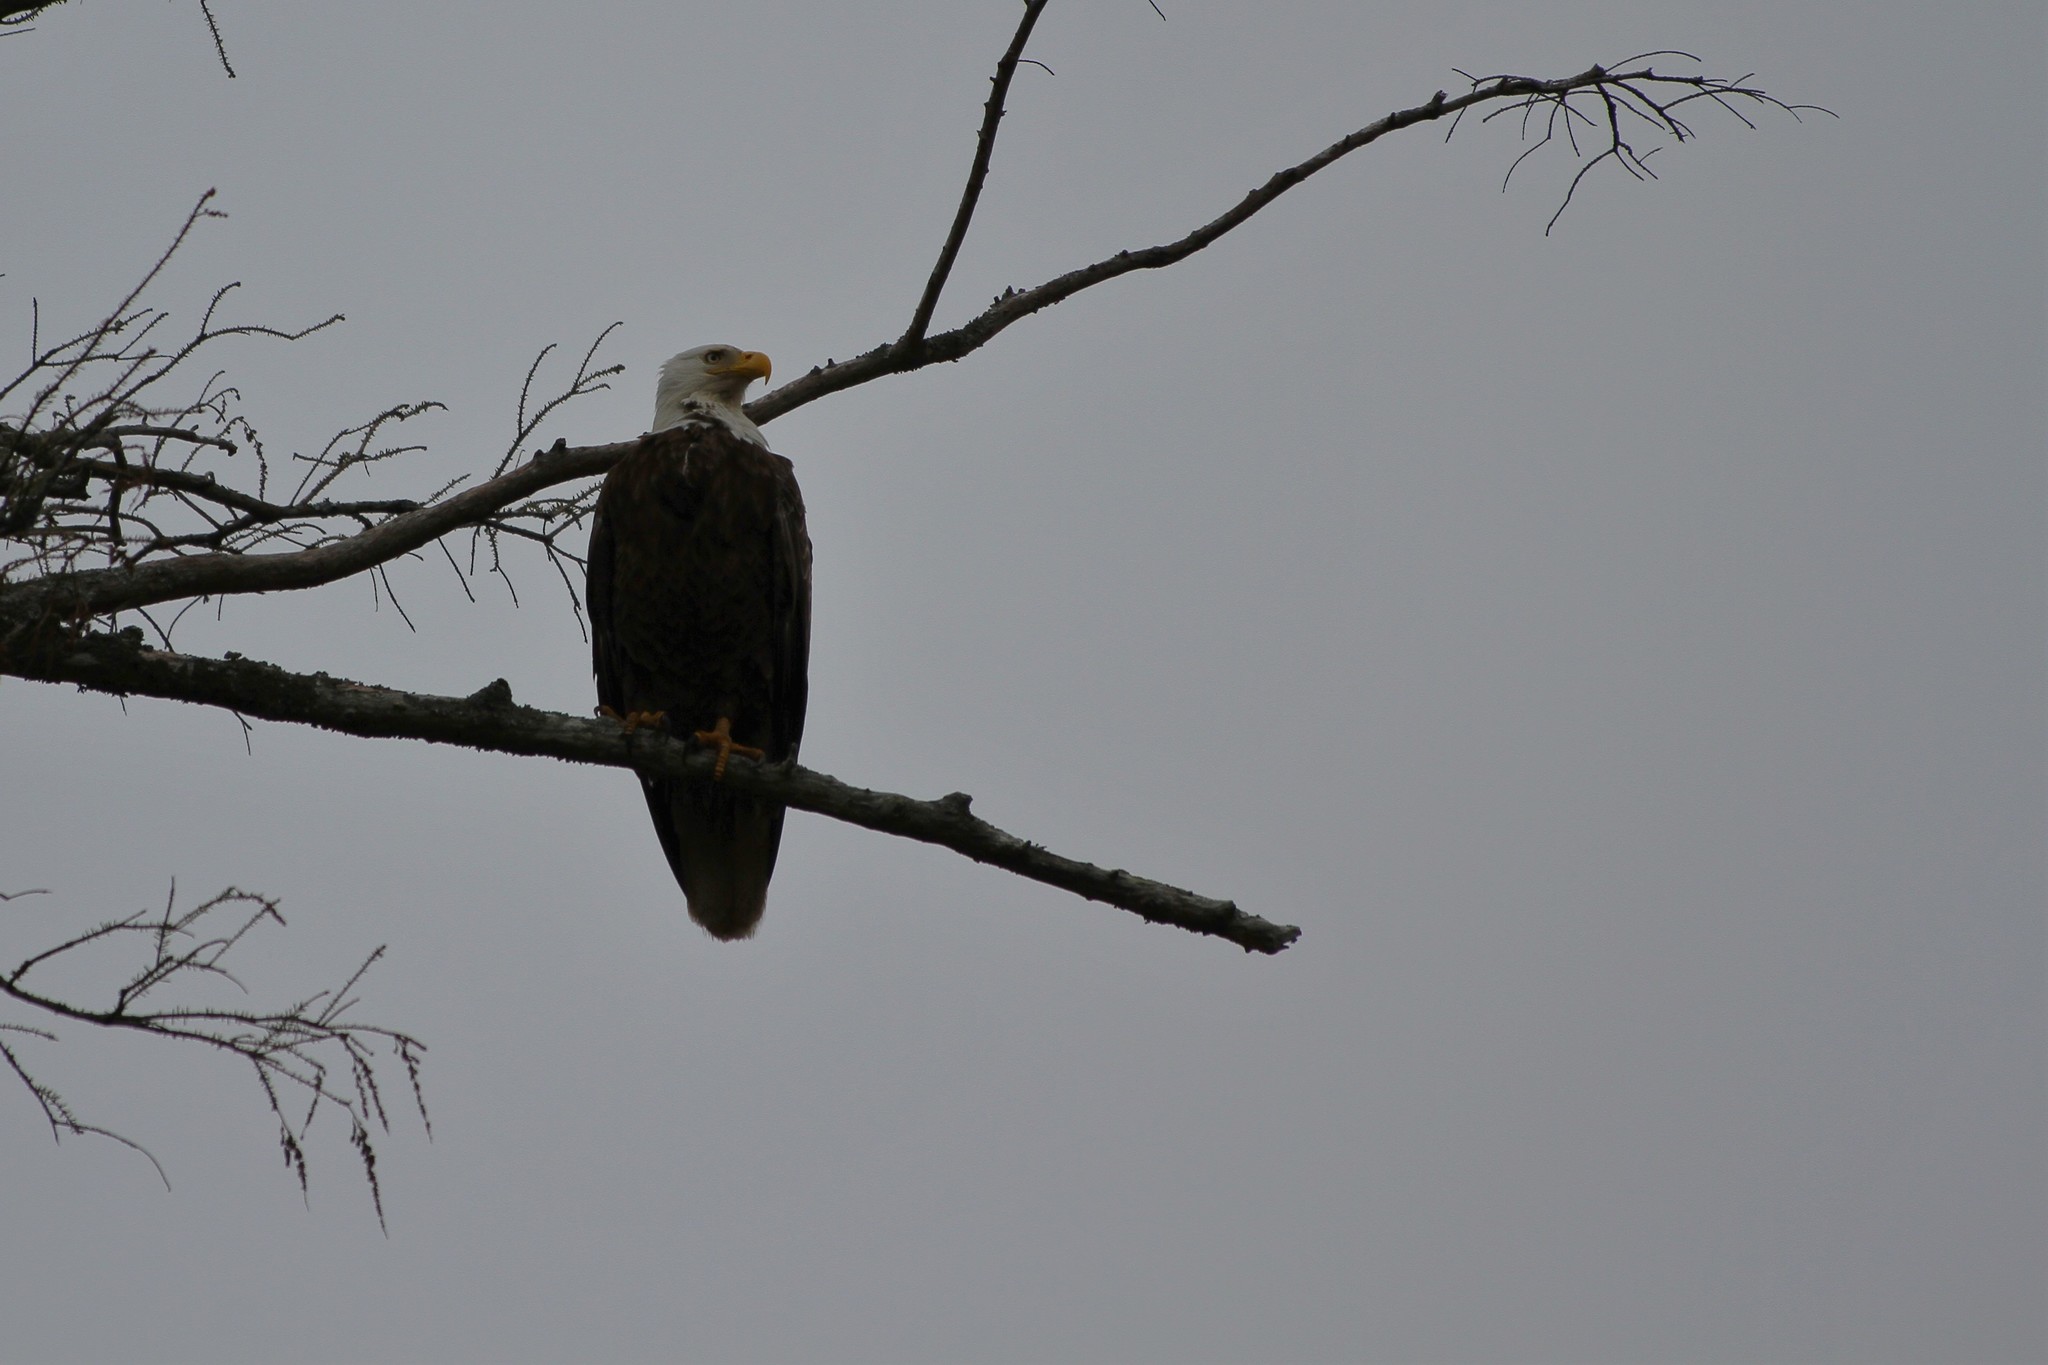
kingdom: Animalia
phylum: Chordata
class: Aves
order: Accipitriformes
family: Accipitridae
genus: Haliaeetus
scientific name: Haliaeetus leucocephalus
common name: Bald eagle
